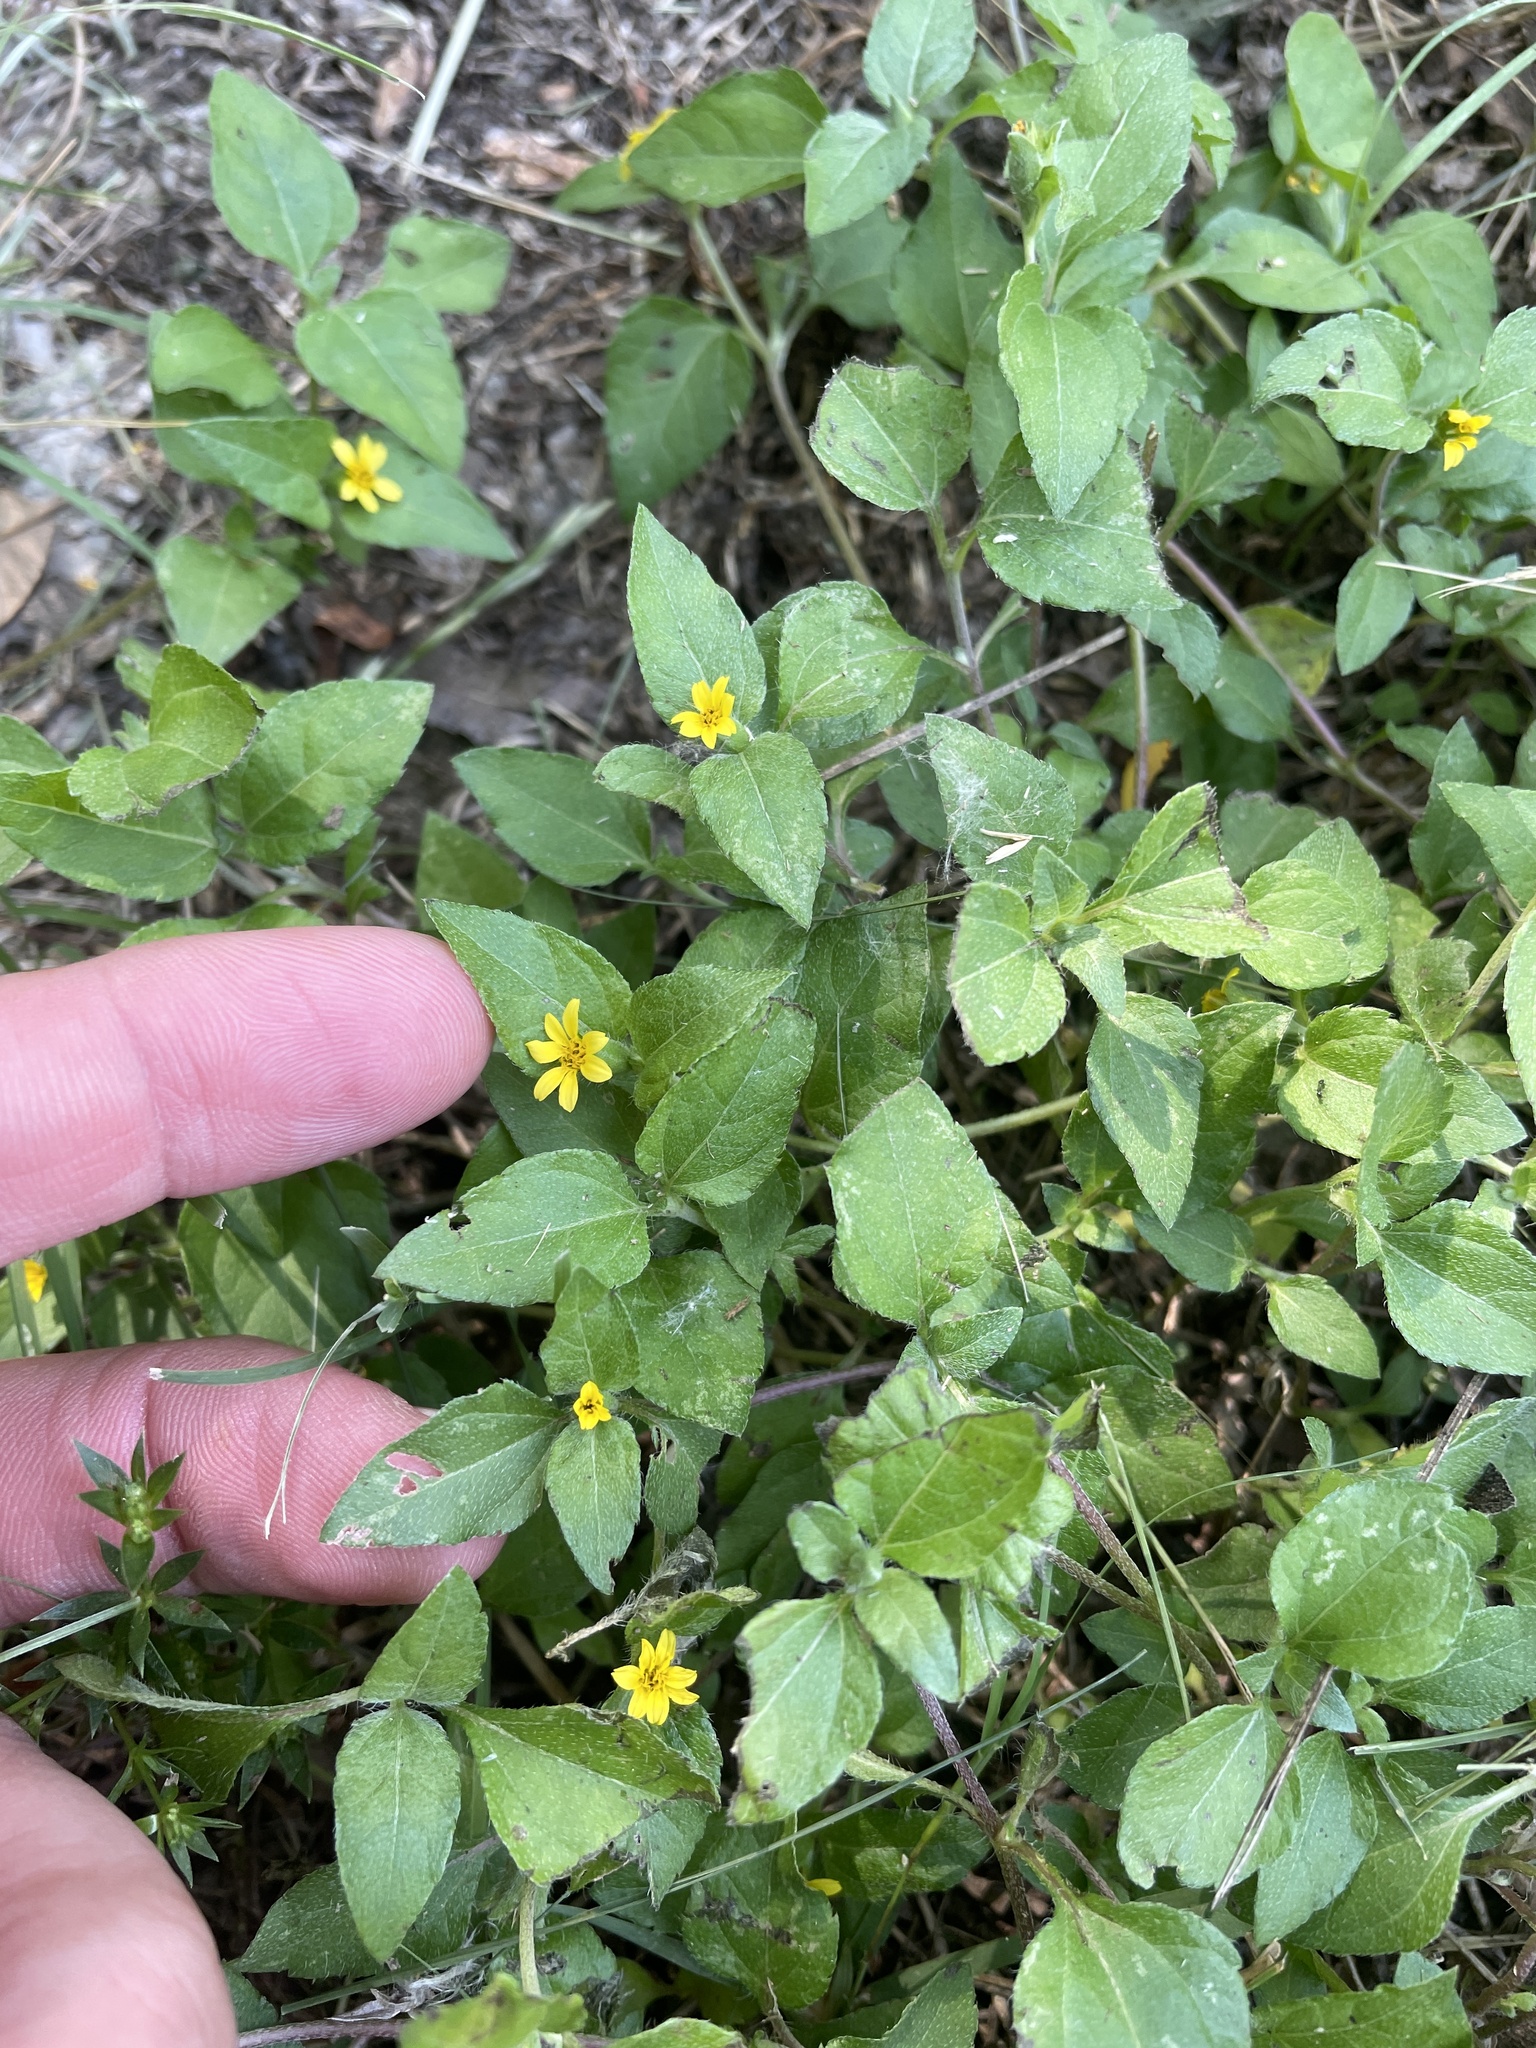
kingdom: Plantae
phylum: Tracheophyta
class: Magnoliopsida
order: Asterales
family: Asteraceae
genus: Calyptocarpus
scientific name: Calyptocarpus vialis
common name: Straggler daisy
